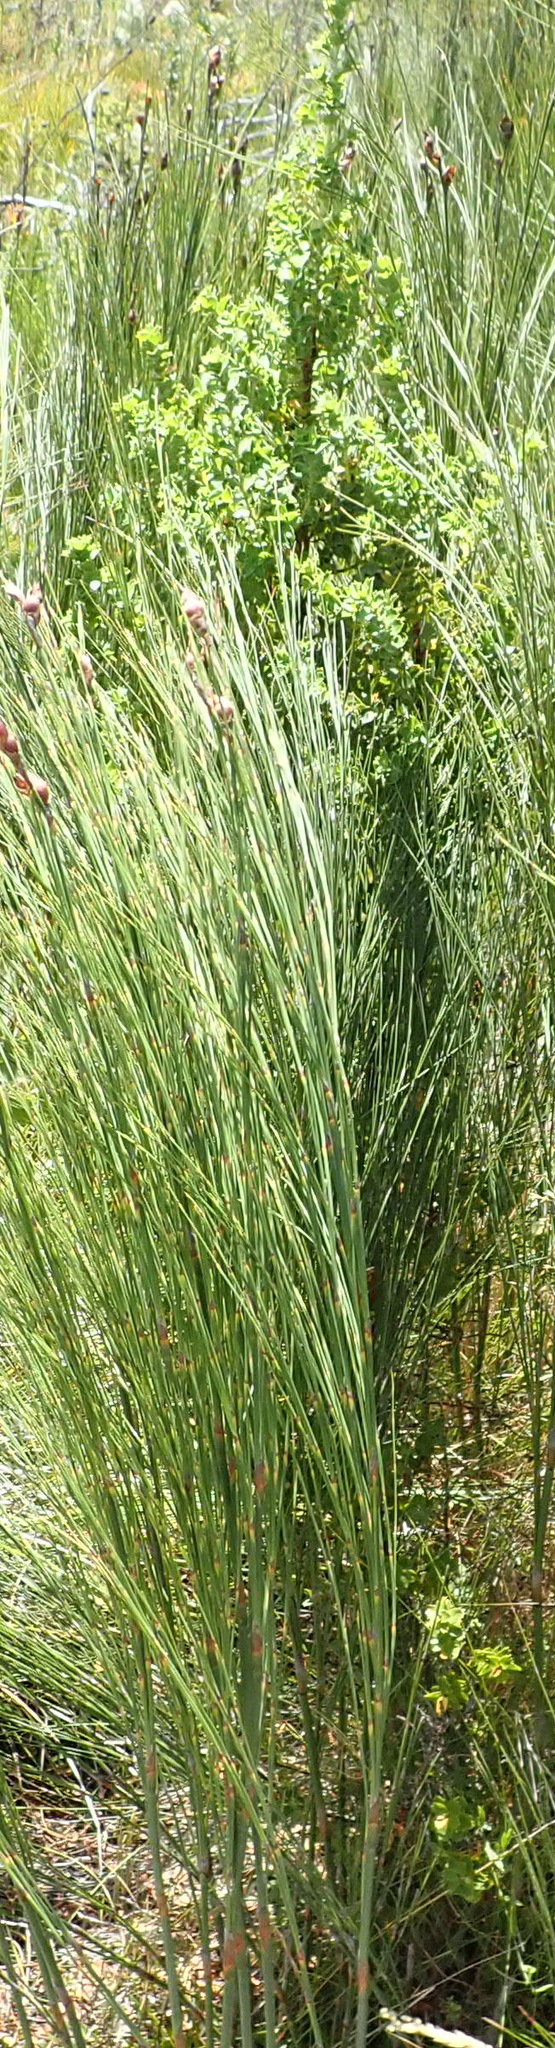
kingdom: Plantae
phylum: Tracheophyta
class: Magnoliopsida
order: Rosales
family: Rosaceae
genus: Cliffortia
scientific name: Cliffortia ilicifolia
